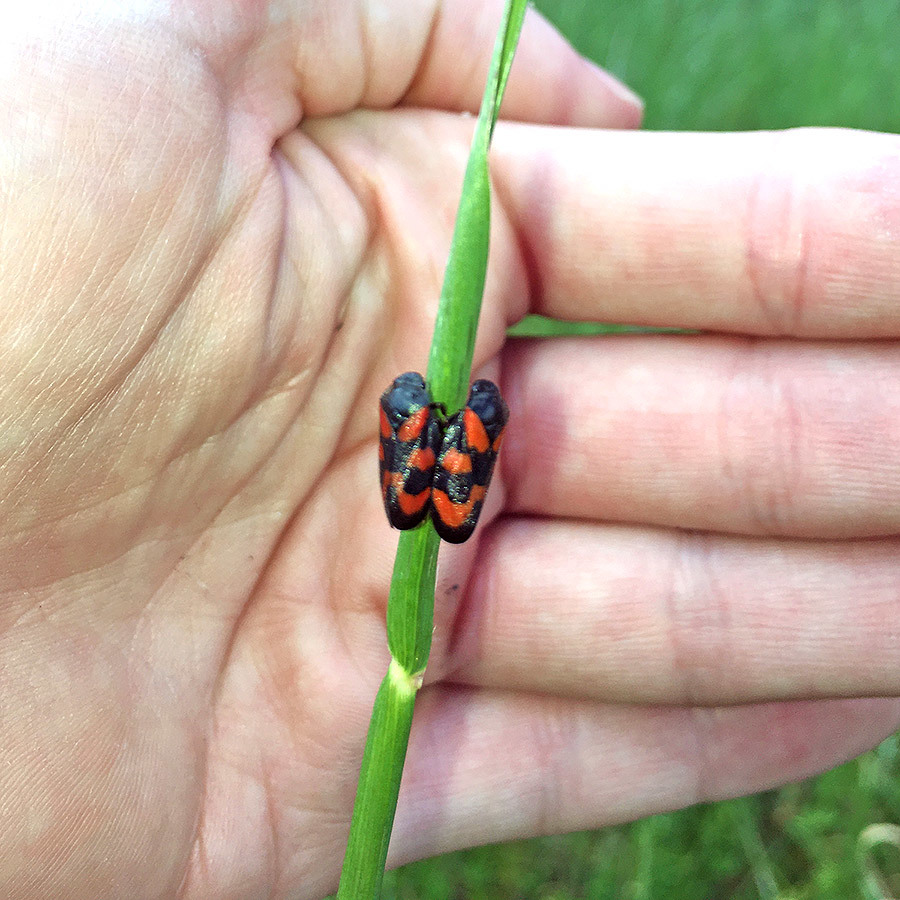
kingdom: Animalia
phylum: Arthropoda
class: Insecta
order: Hemiptera
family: Cercopidae
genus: Cercopis
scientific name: Cercopis vulnerata
